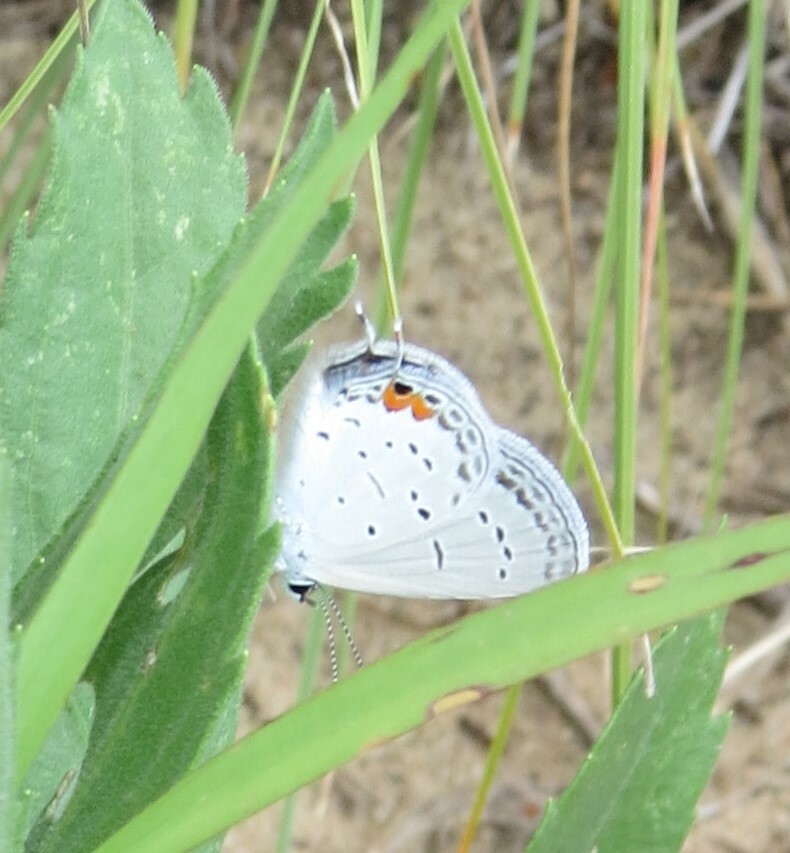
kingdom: Animalia
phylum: Arthropoda
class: Insecta
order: Lepidoptera
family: Lycaenidae
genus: Elkalyce
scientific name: Elkalyce comyntas
